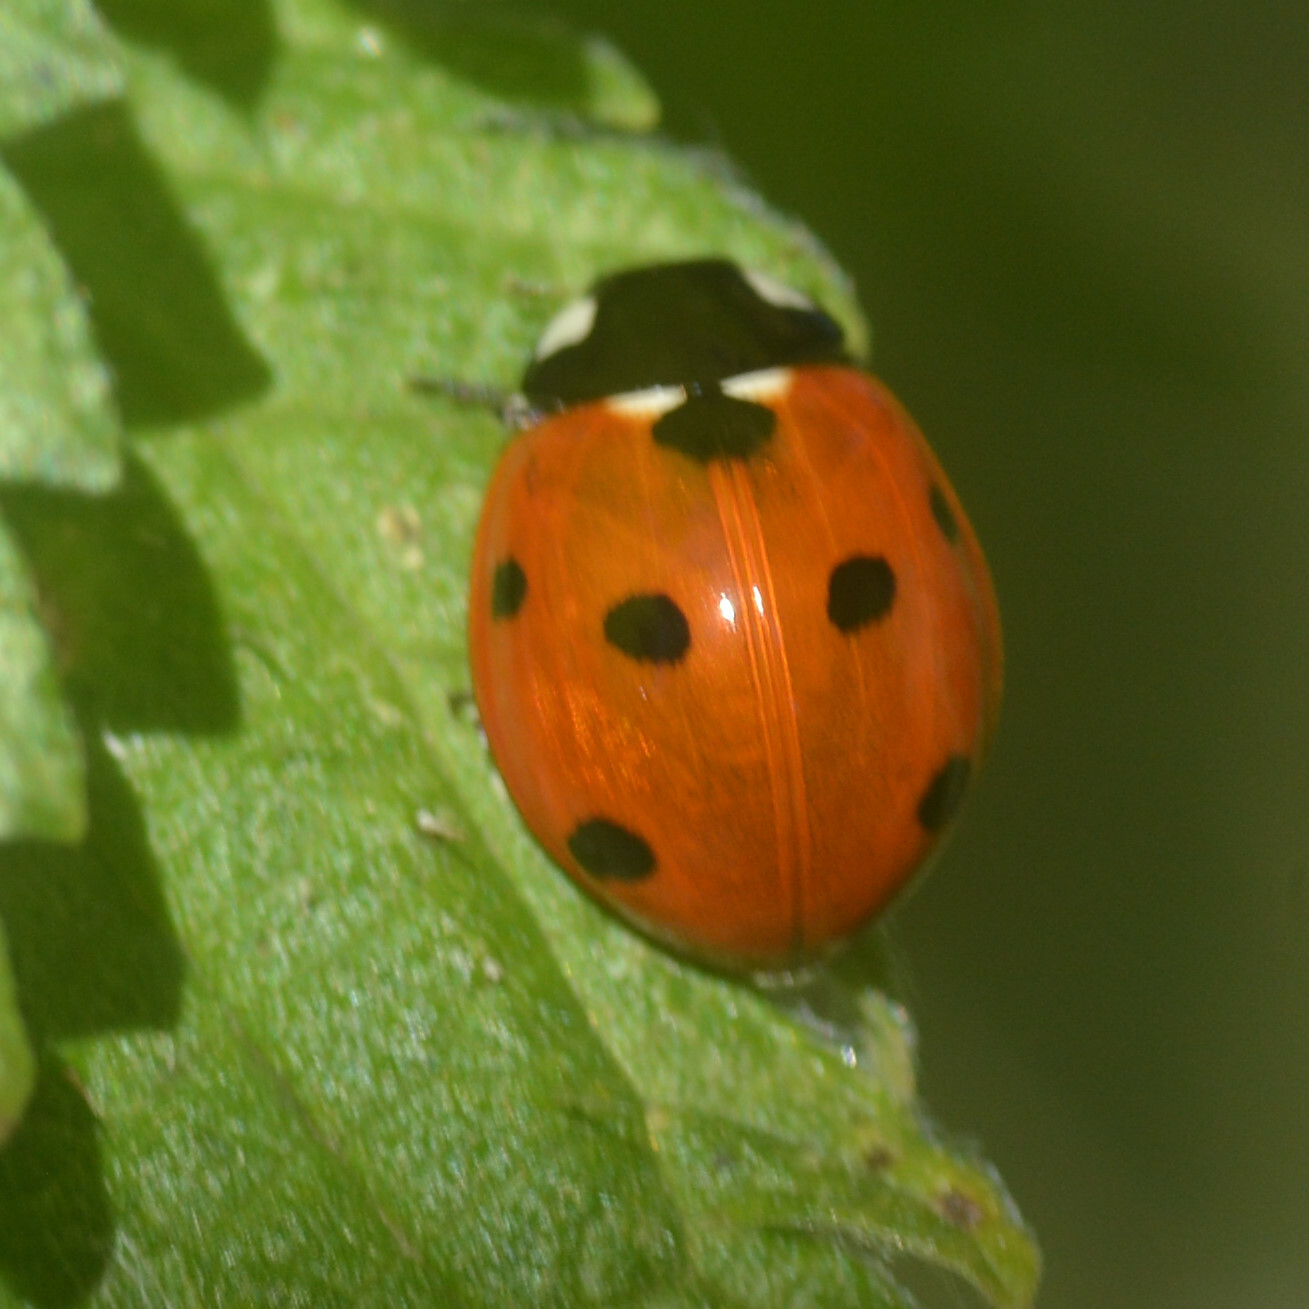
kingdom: Animalia
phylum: Arthropoda
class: Insecta
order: Coleoptera
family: Coccinellidae
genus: Coccinella
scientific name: Coccinella septempunctata
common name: Sevenspotted lady beetle
